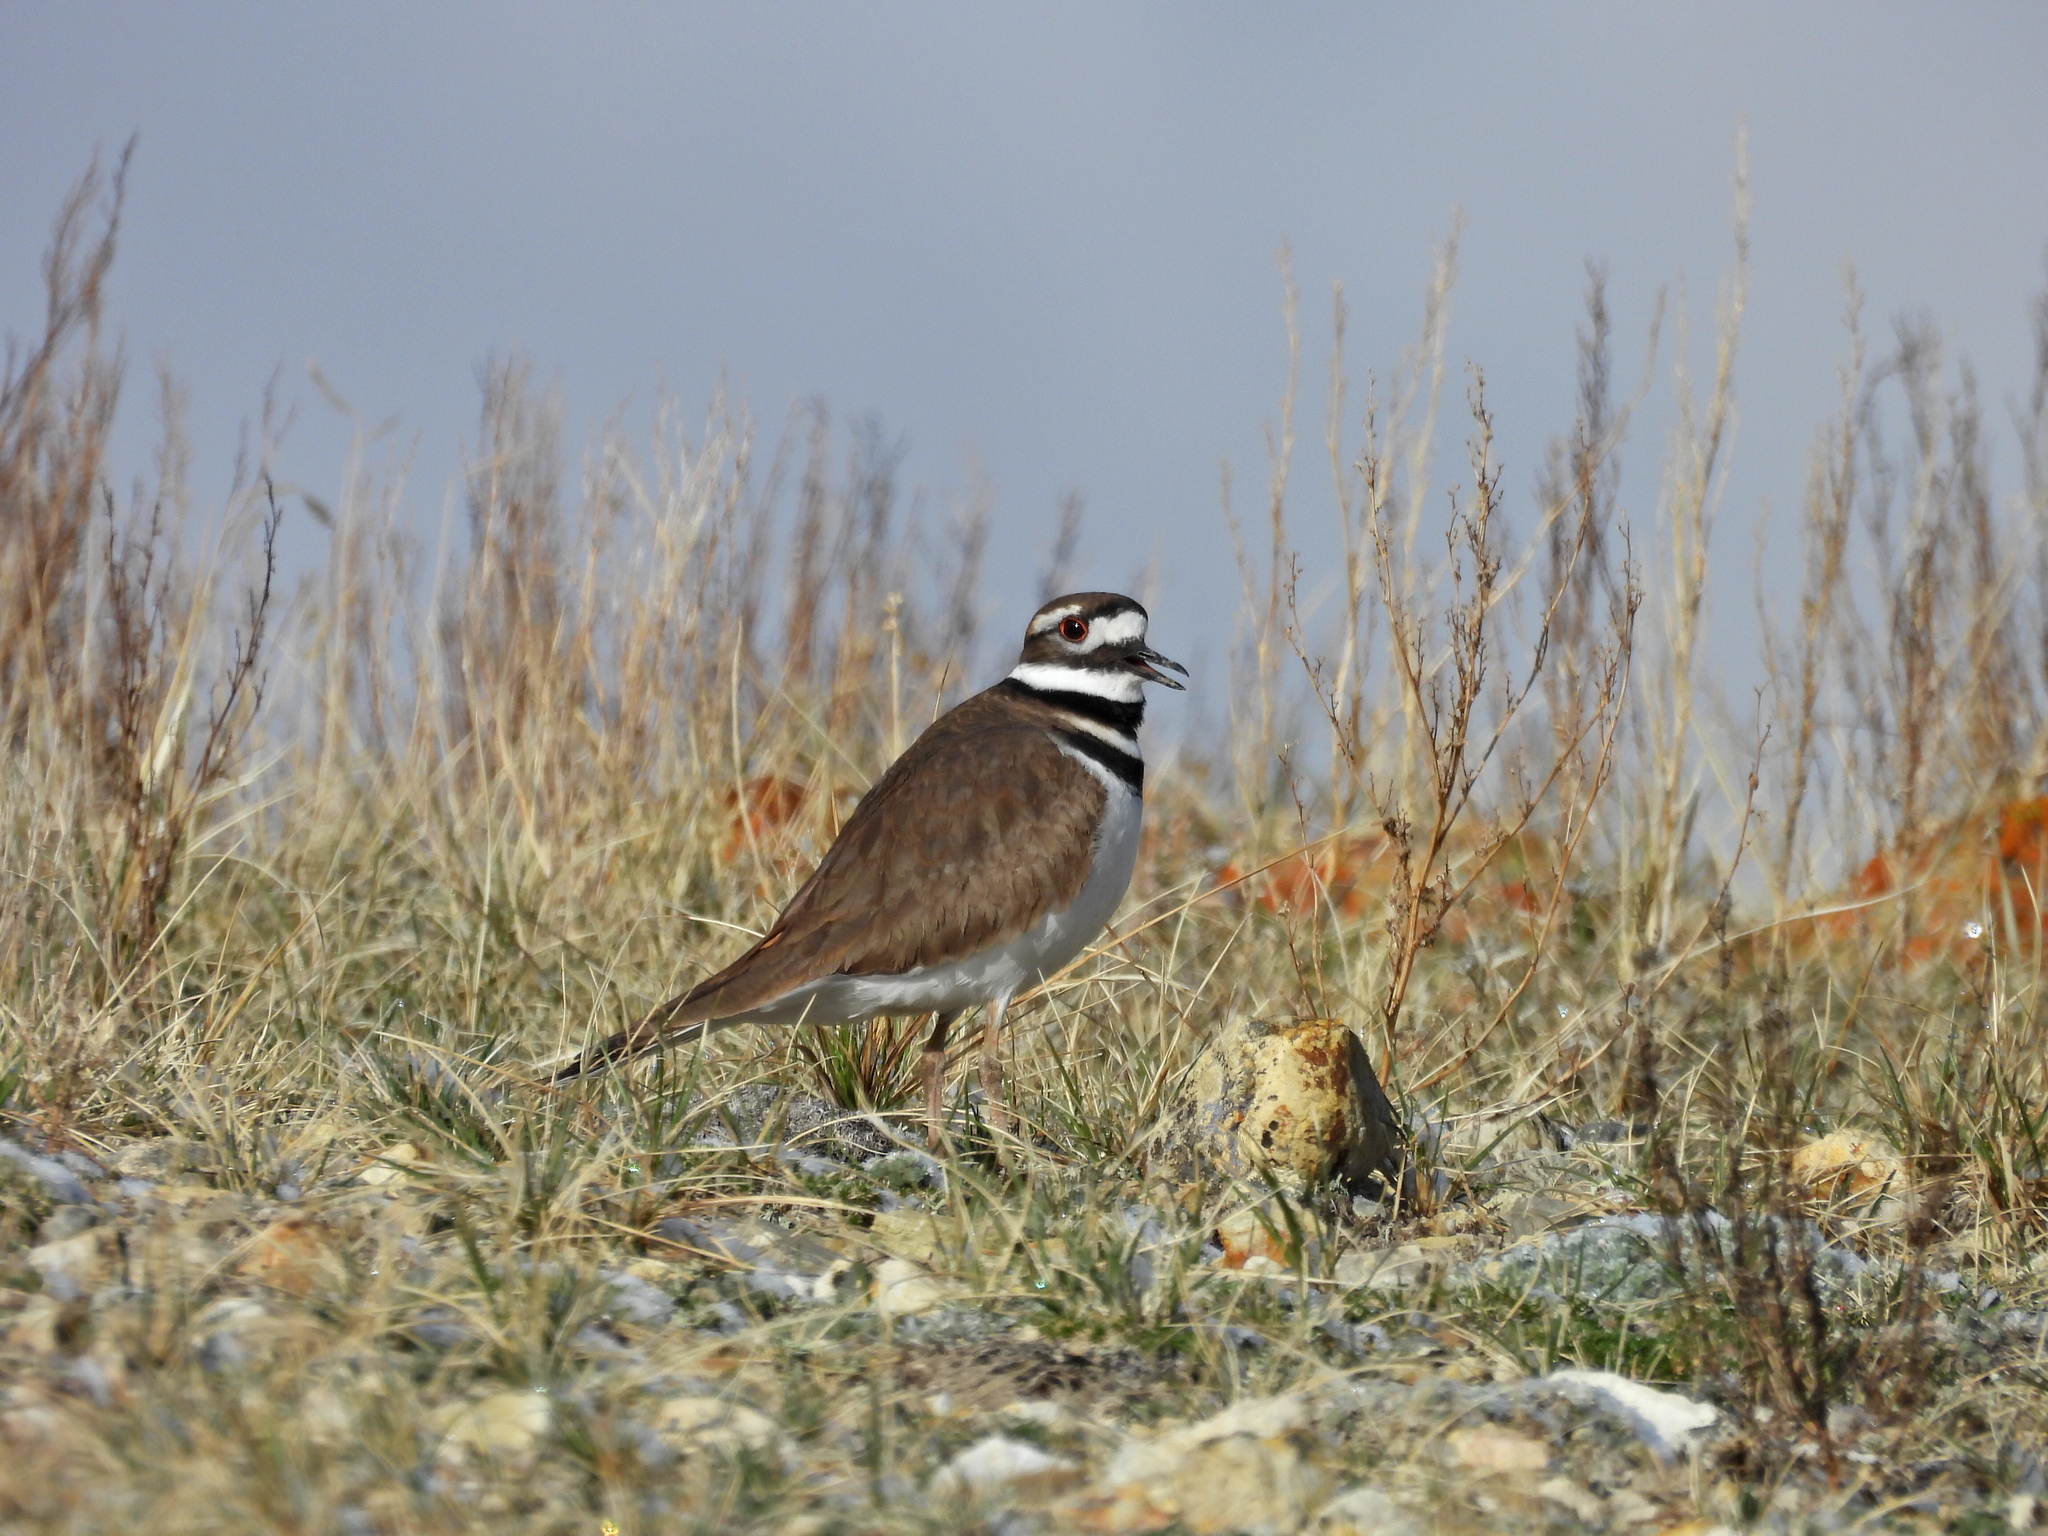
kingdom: Animalia
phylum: Chordata
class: Aves
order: Charadriiformes
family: Charadriidae
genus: Charadrius
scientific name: Charadrius vociferus
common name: Killdeer
